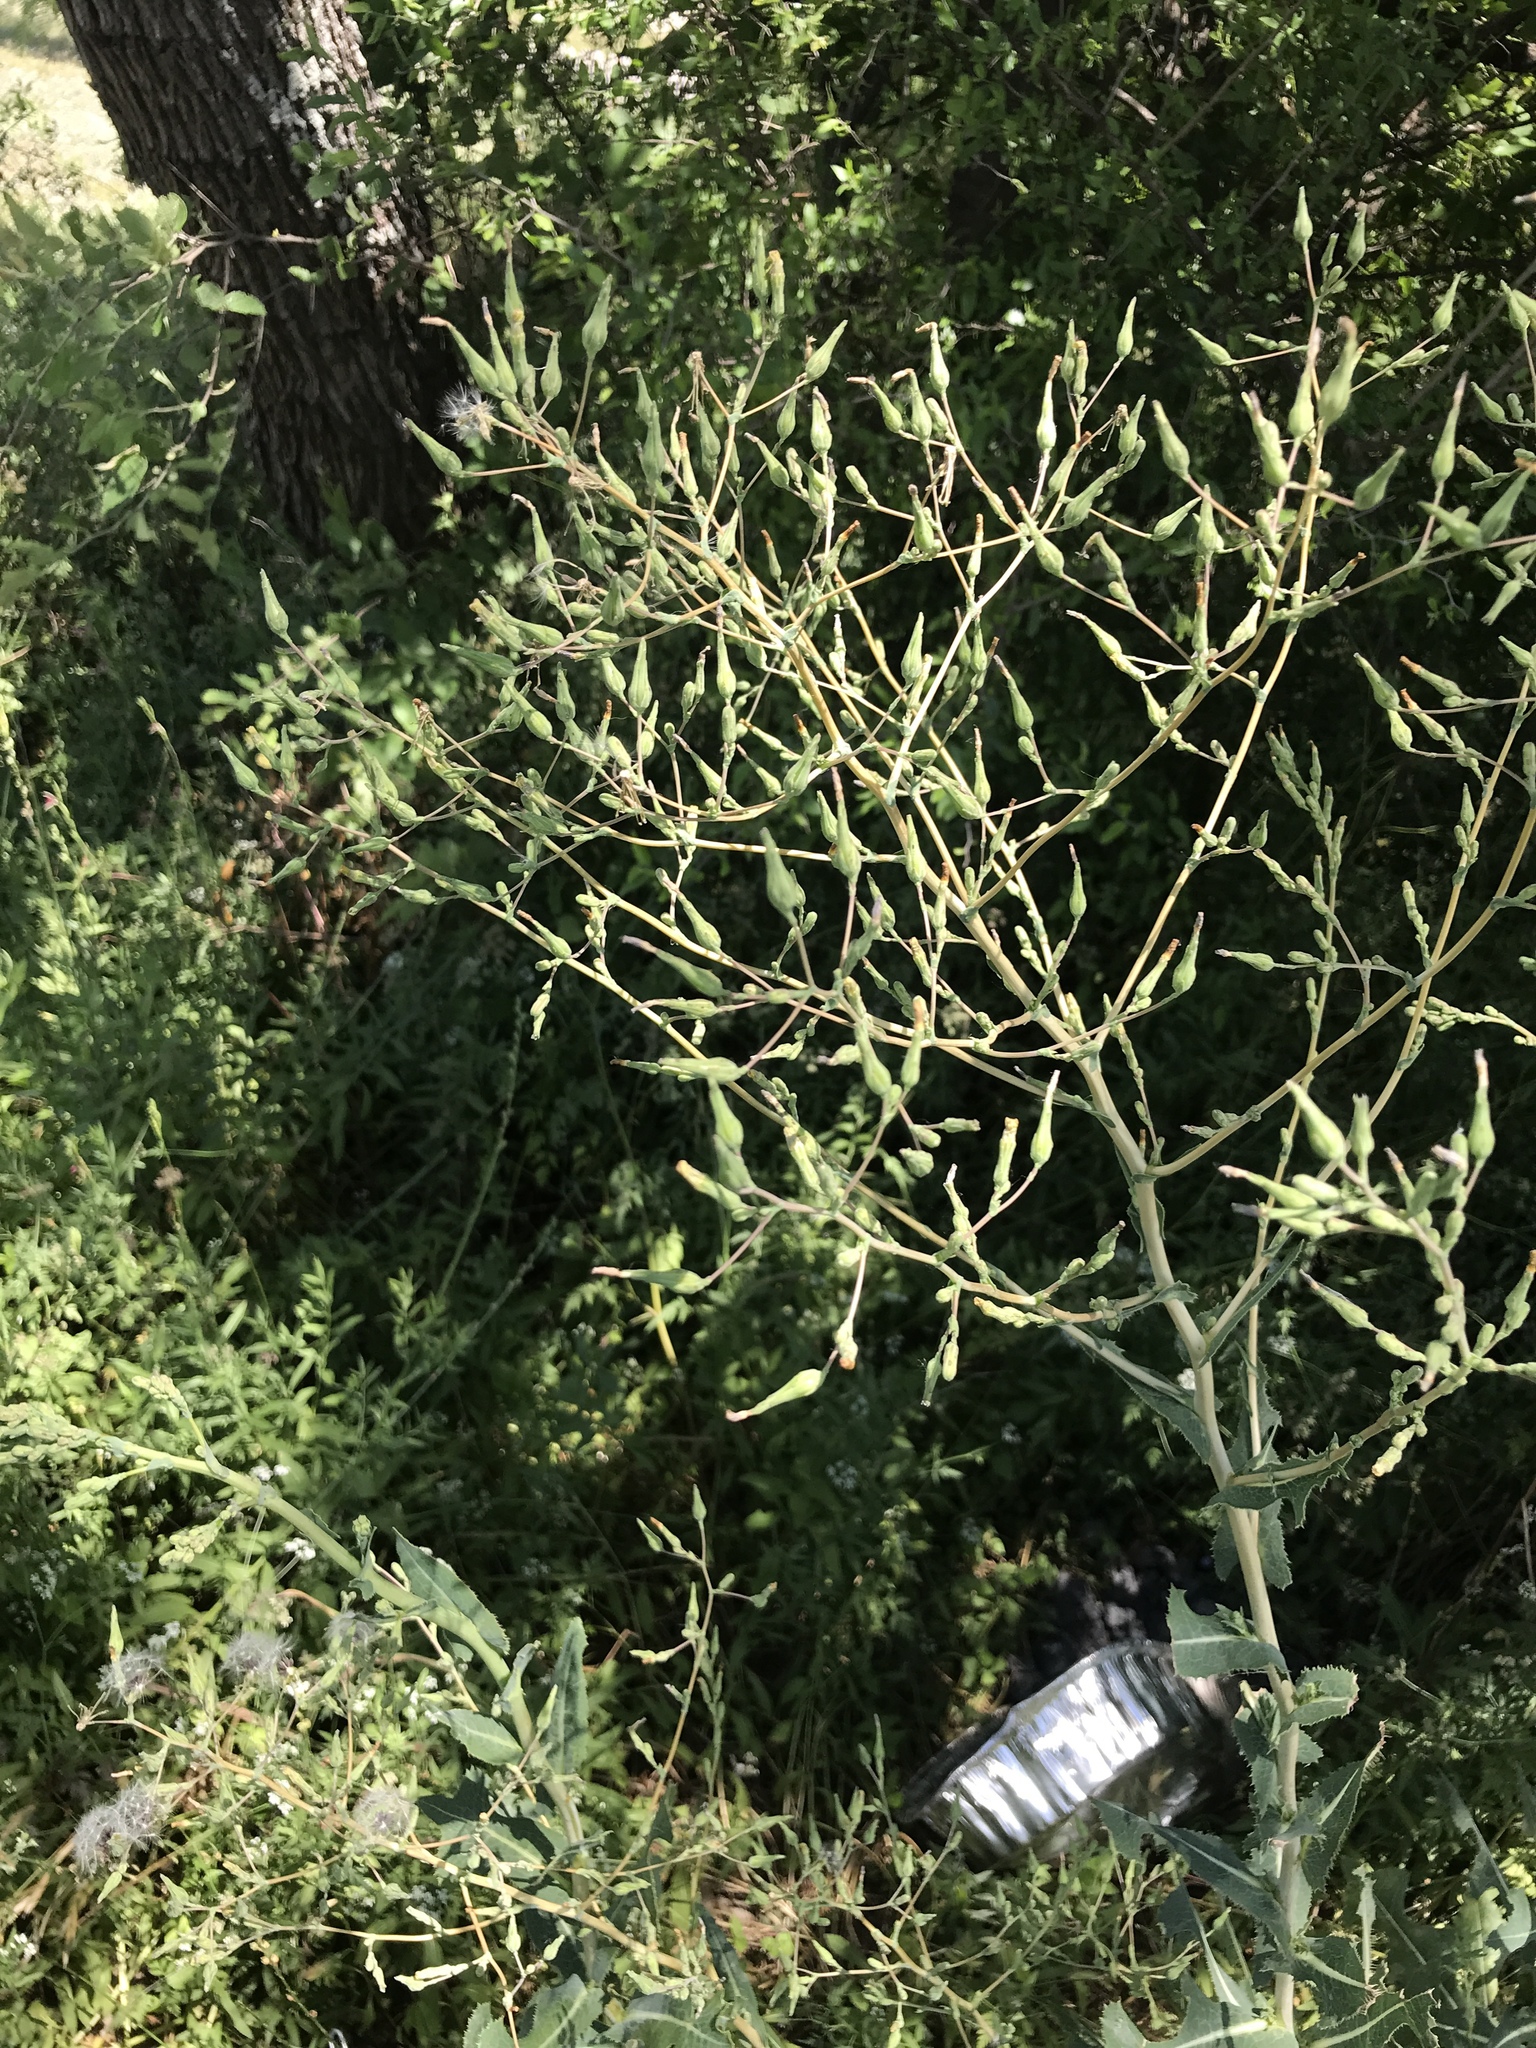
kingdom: Plantae
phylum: Tracheophyta
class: Magnoliopsida
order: Asterales
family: Asteraceae
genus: Lactuca
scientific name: Lactuca serriola
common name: Prickly lettuce
